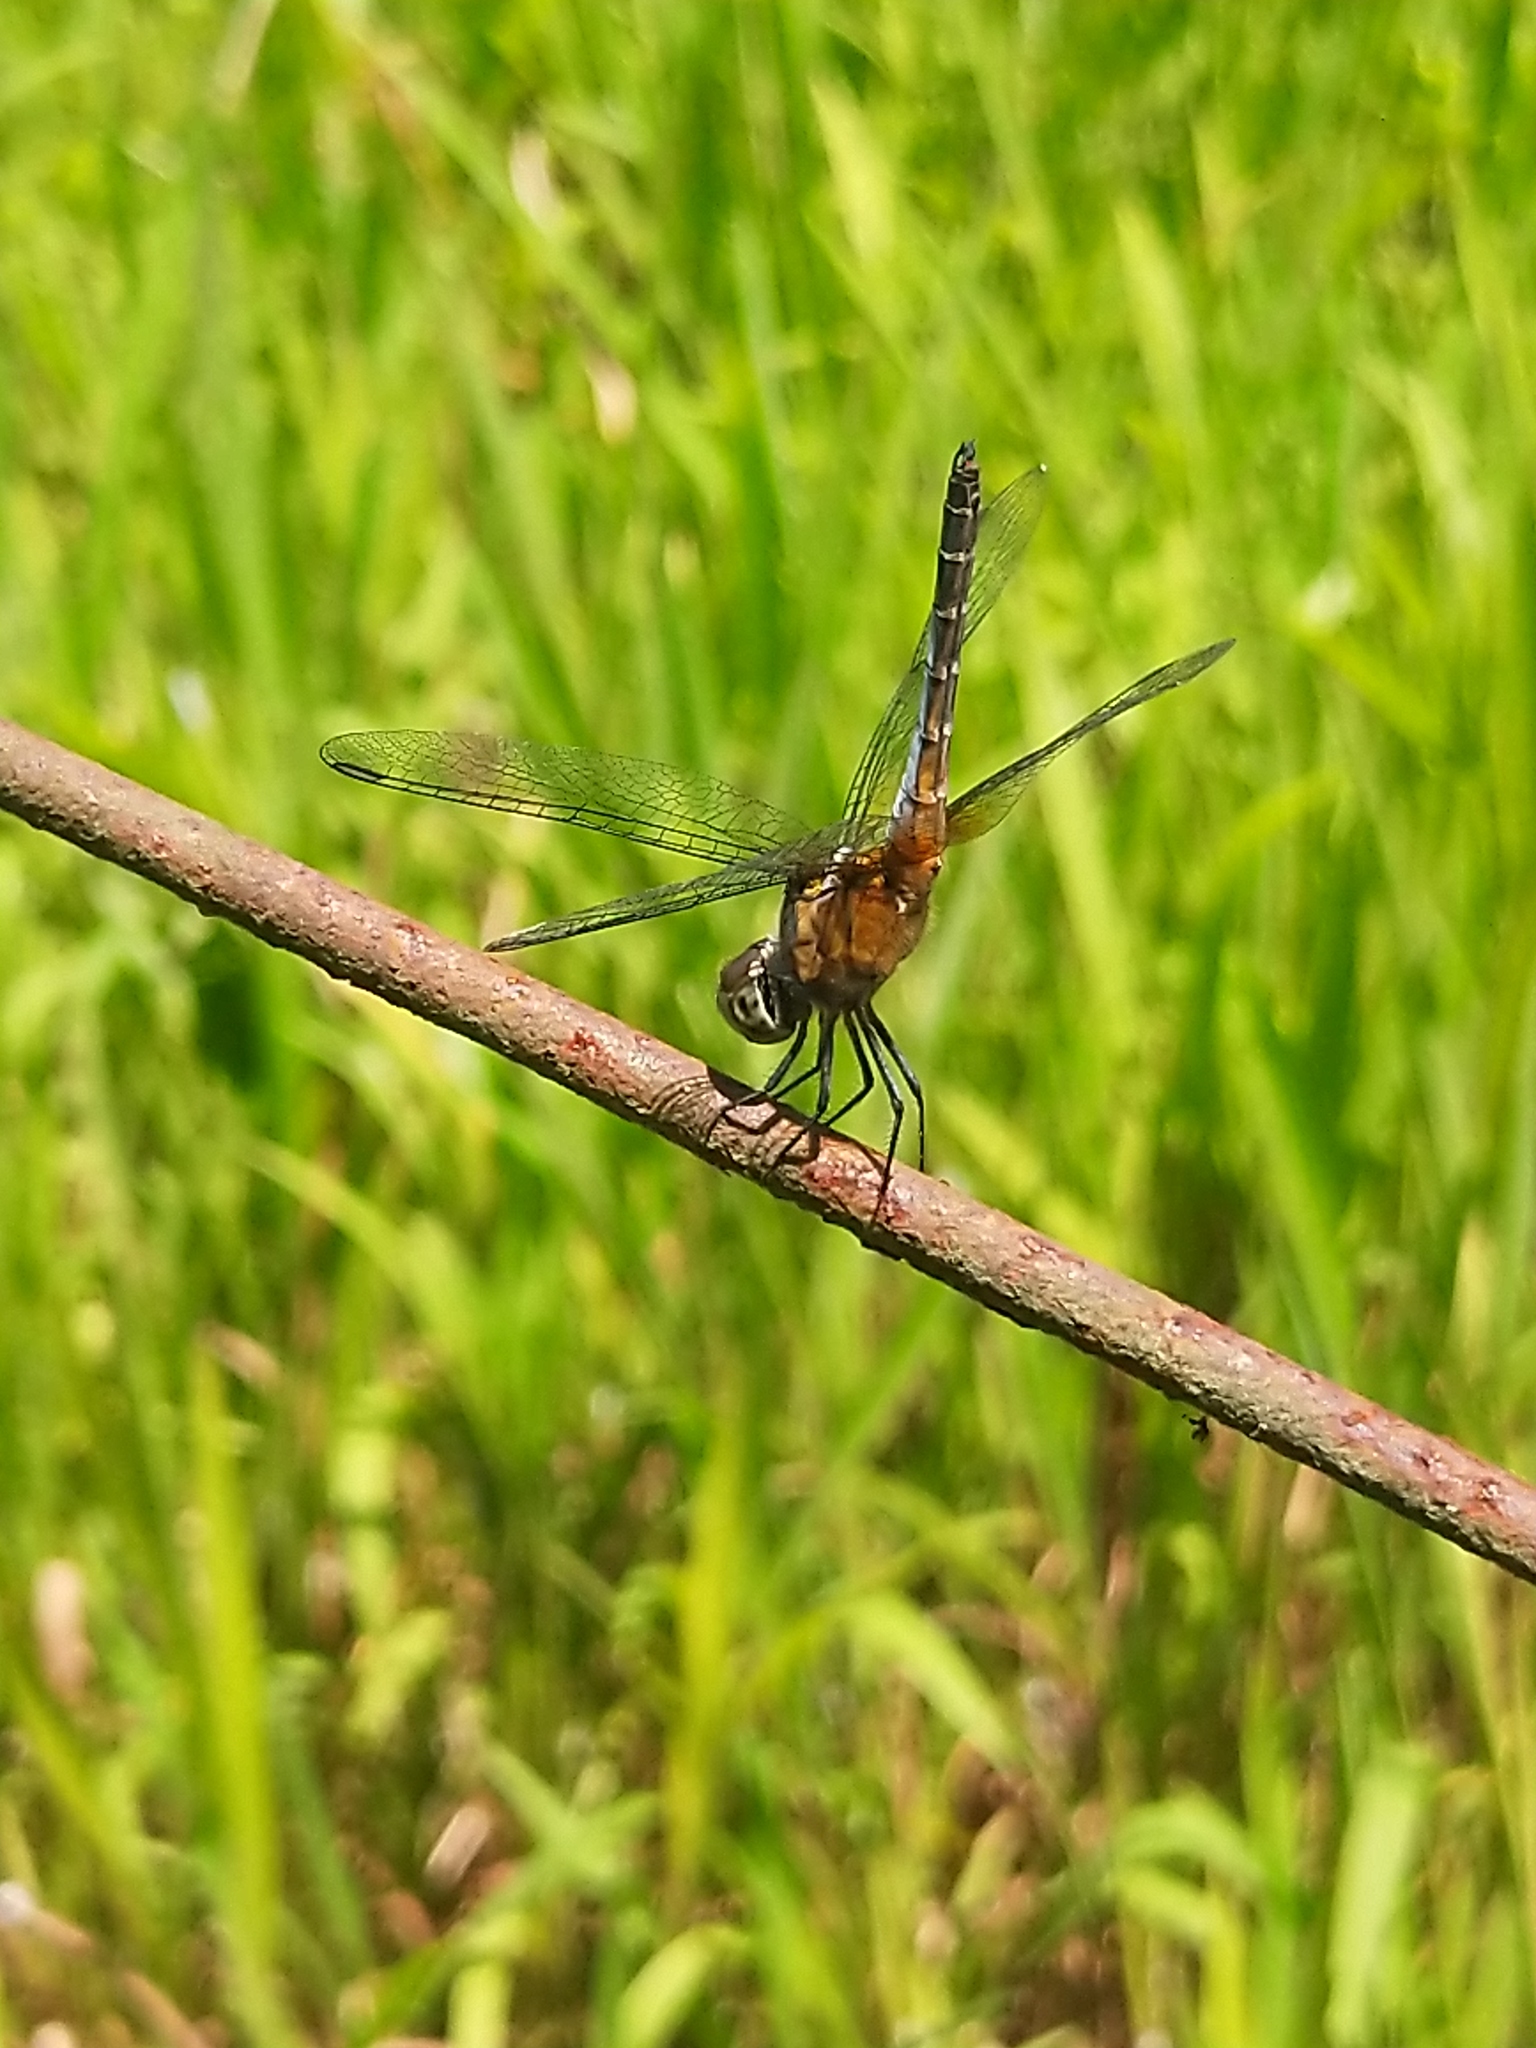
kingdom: Animalia
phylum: Arthropoda
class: Insecta
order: Odonata
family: Libellulidae
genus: Brachydiplax
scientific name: Brachydiplax chalybea
